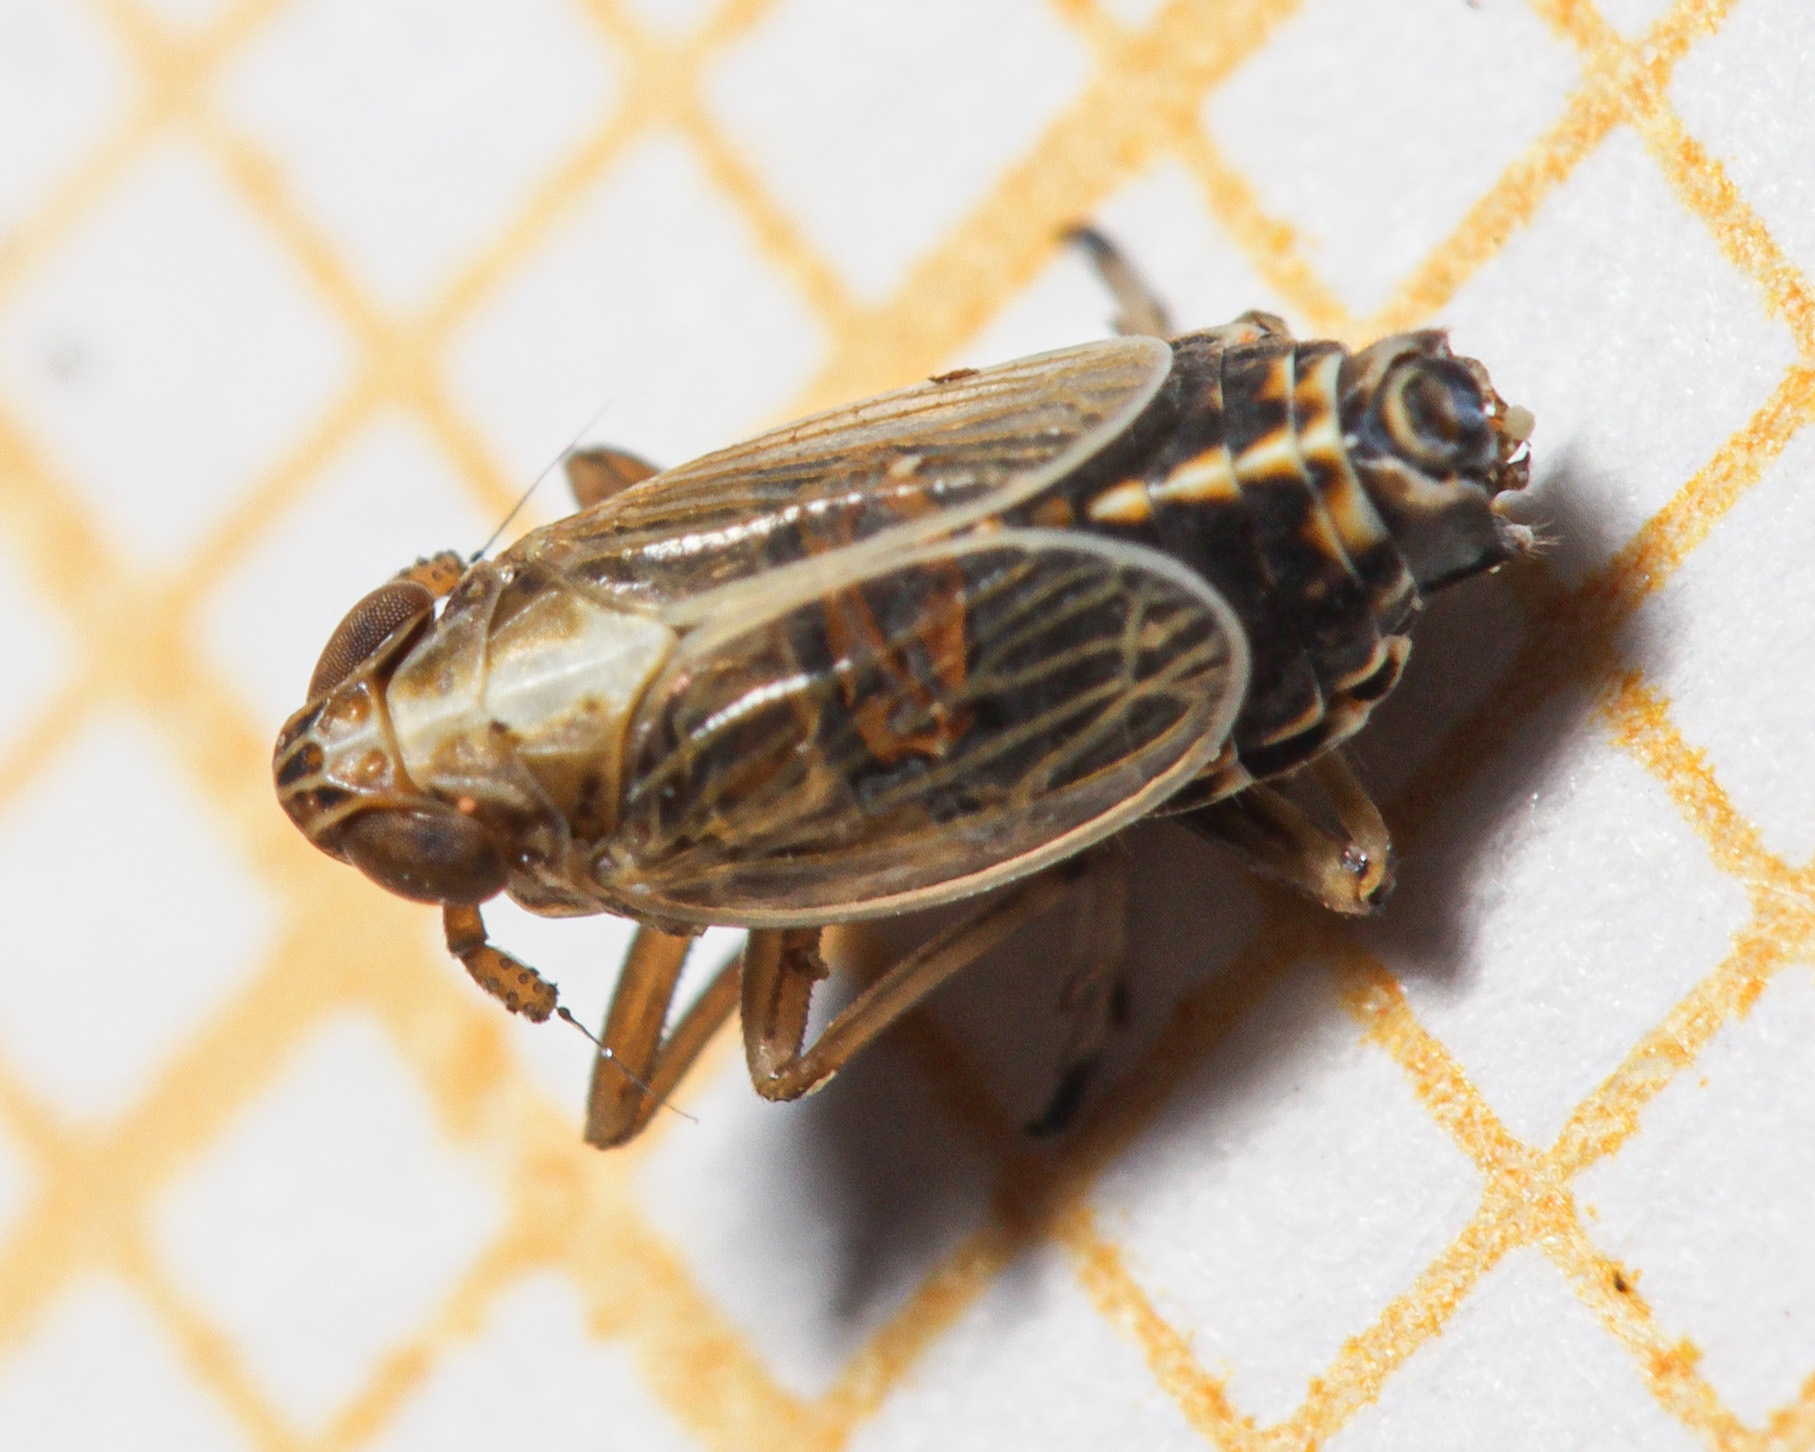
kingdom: Animalia
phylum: Arthropoda
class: Insecta
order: Hemiptera
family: Delphacidae
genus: Megadelphax
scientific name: Megadelphax sordidula
